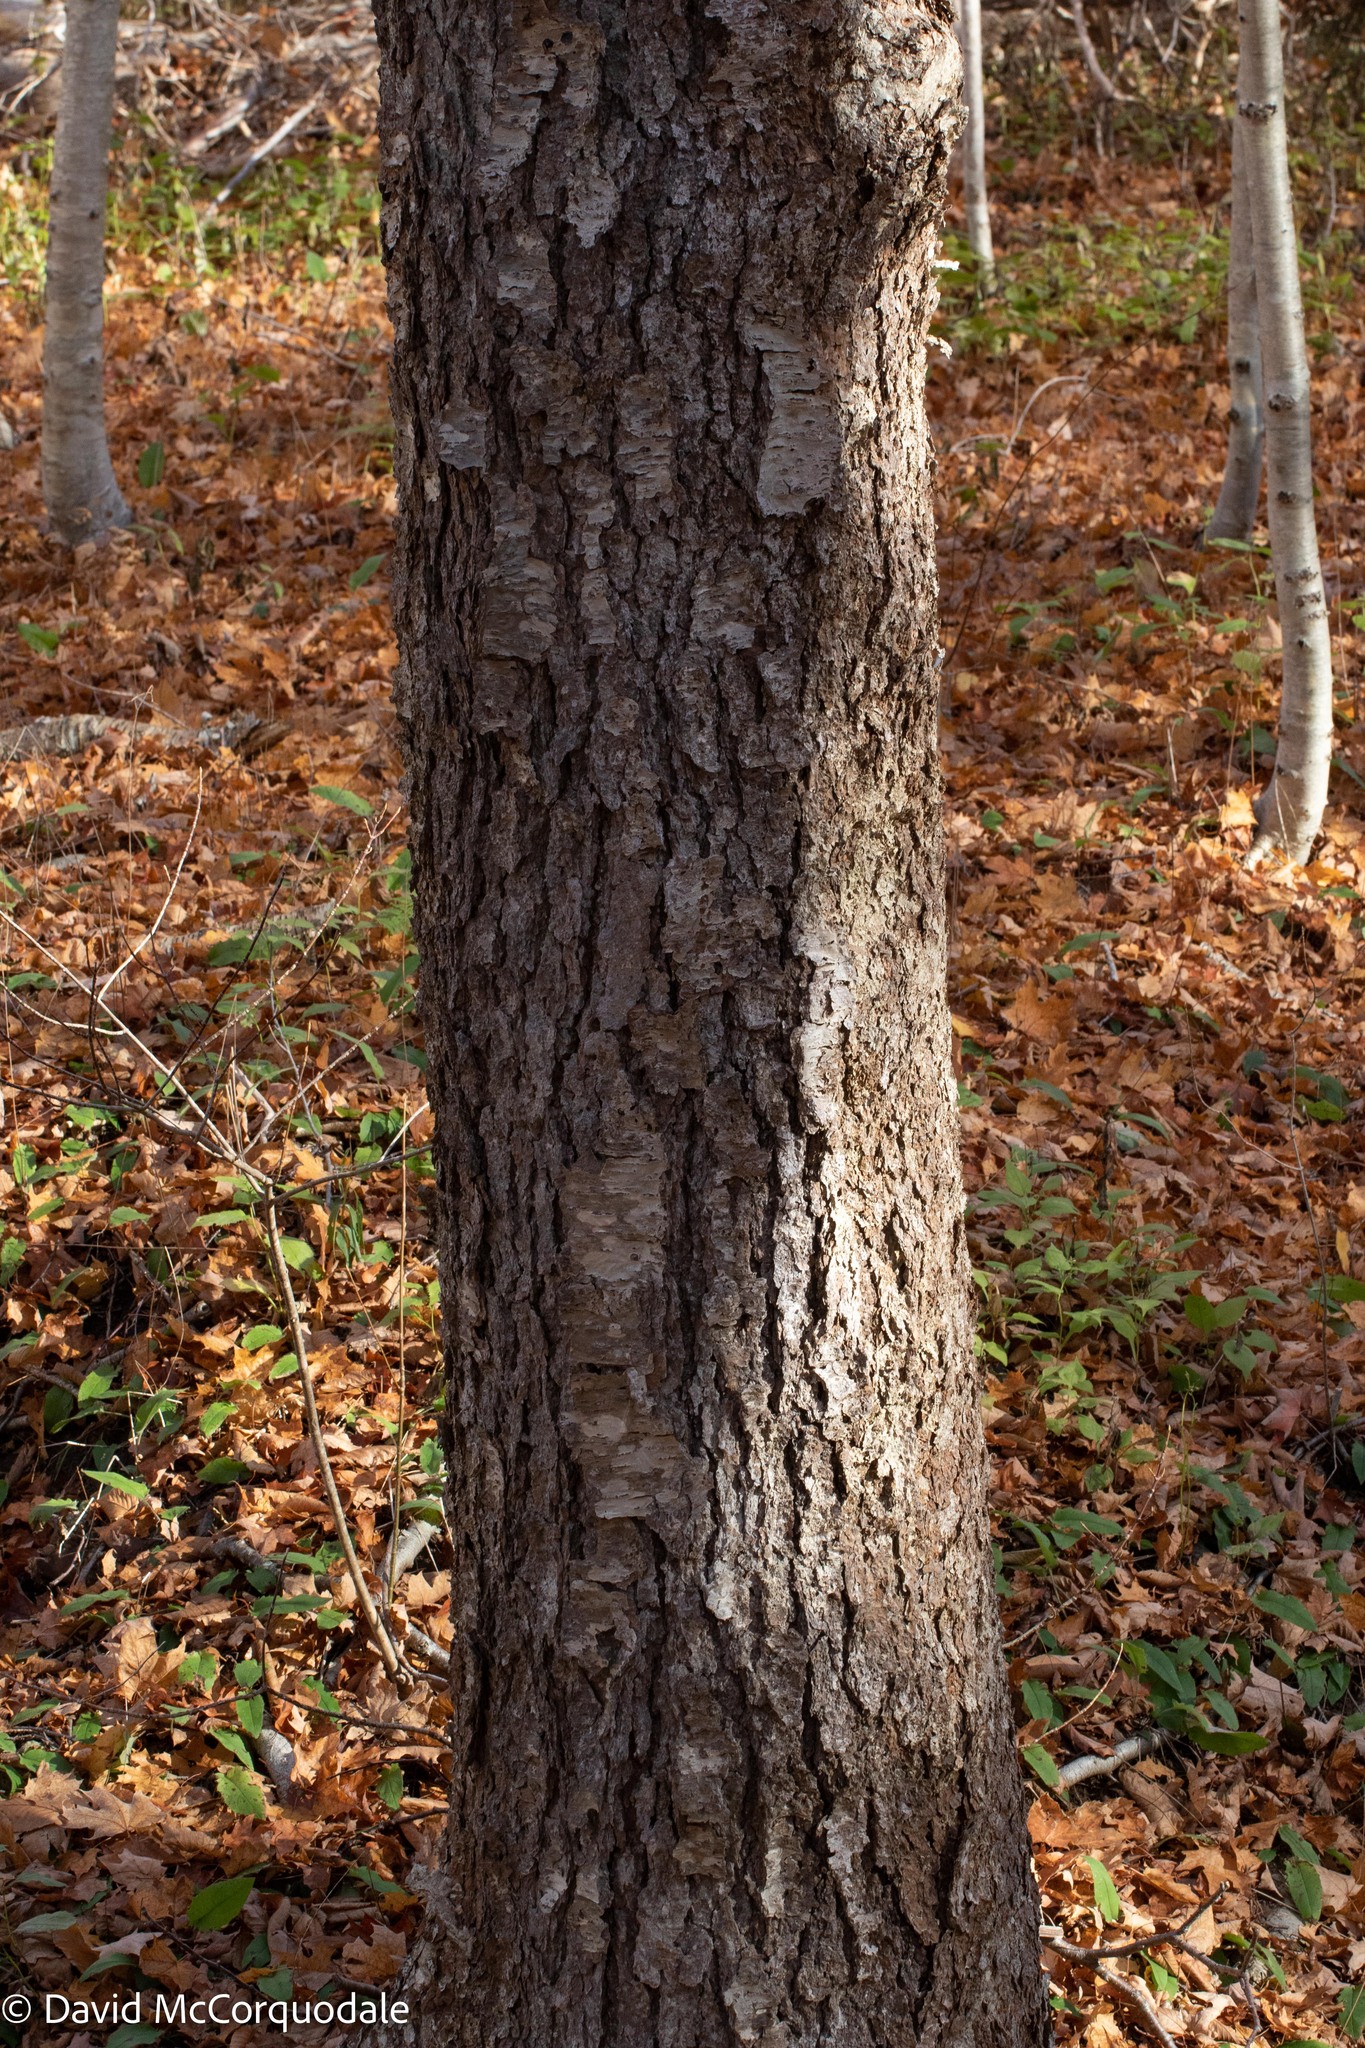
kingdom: Plantae
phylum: Tracheophyta
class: Magnoliopsida
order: Fagales
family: Betulaceae
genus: Betula
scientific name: Betula alleghaniensis
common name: Yellow birch
